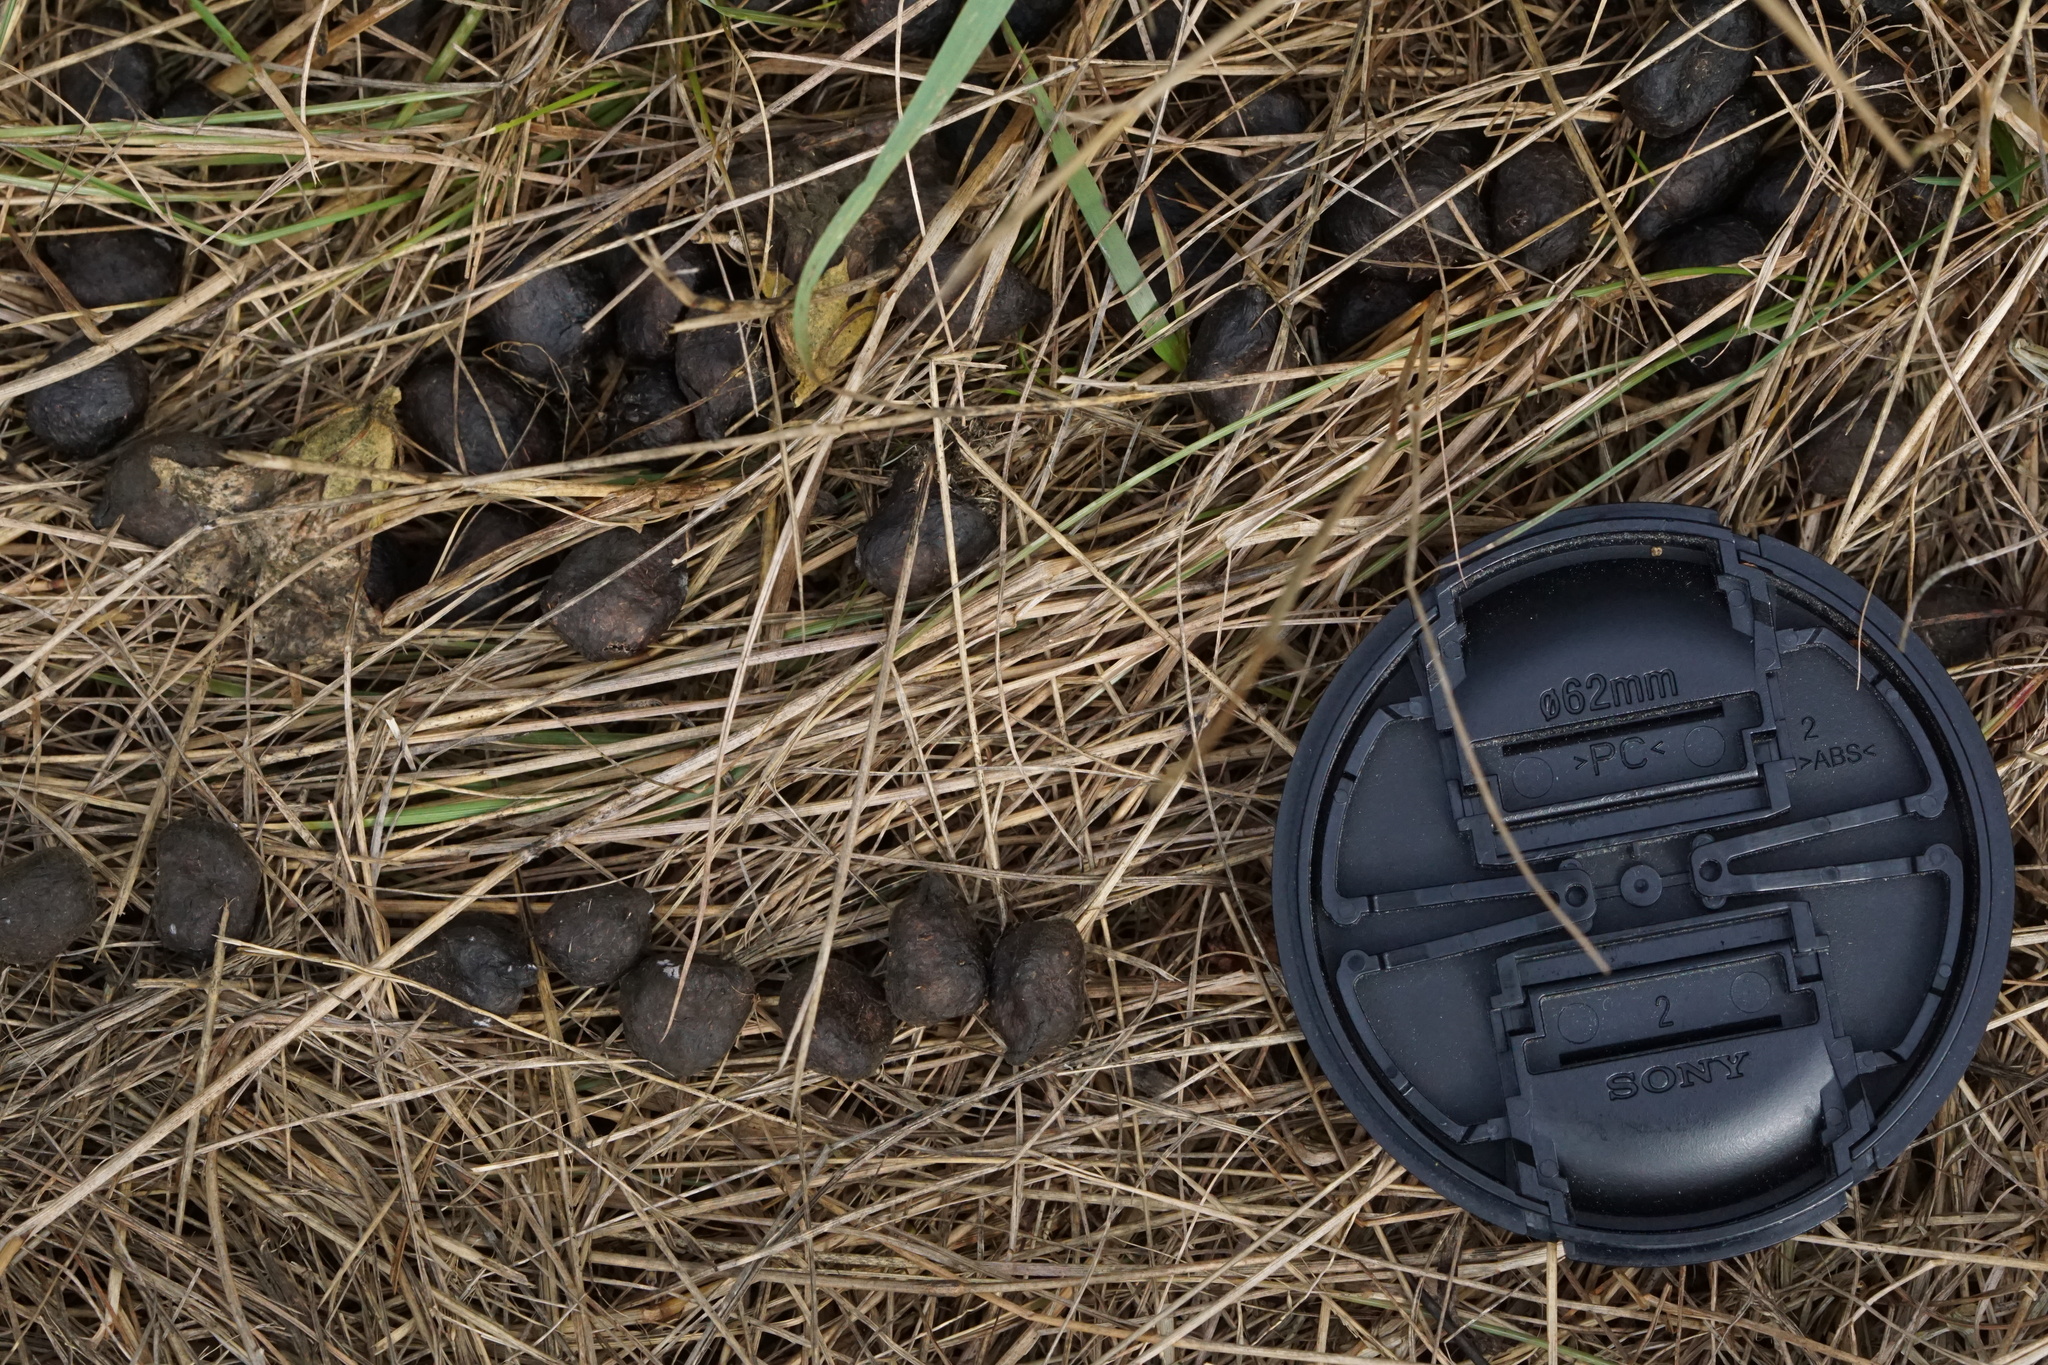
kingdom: Animalia
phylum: Chordata
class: Mammalia
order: Artiodactyla
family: Cervidae
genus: Odocoileus
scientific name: Odocoileus virginianus
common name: White-tailed deer
